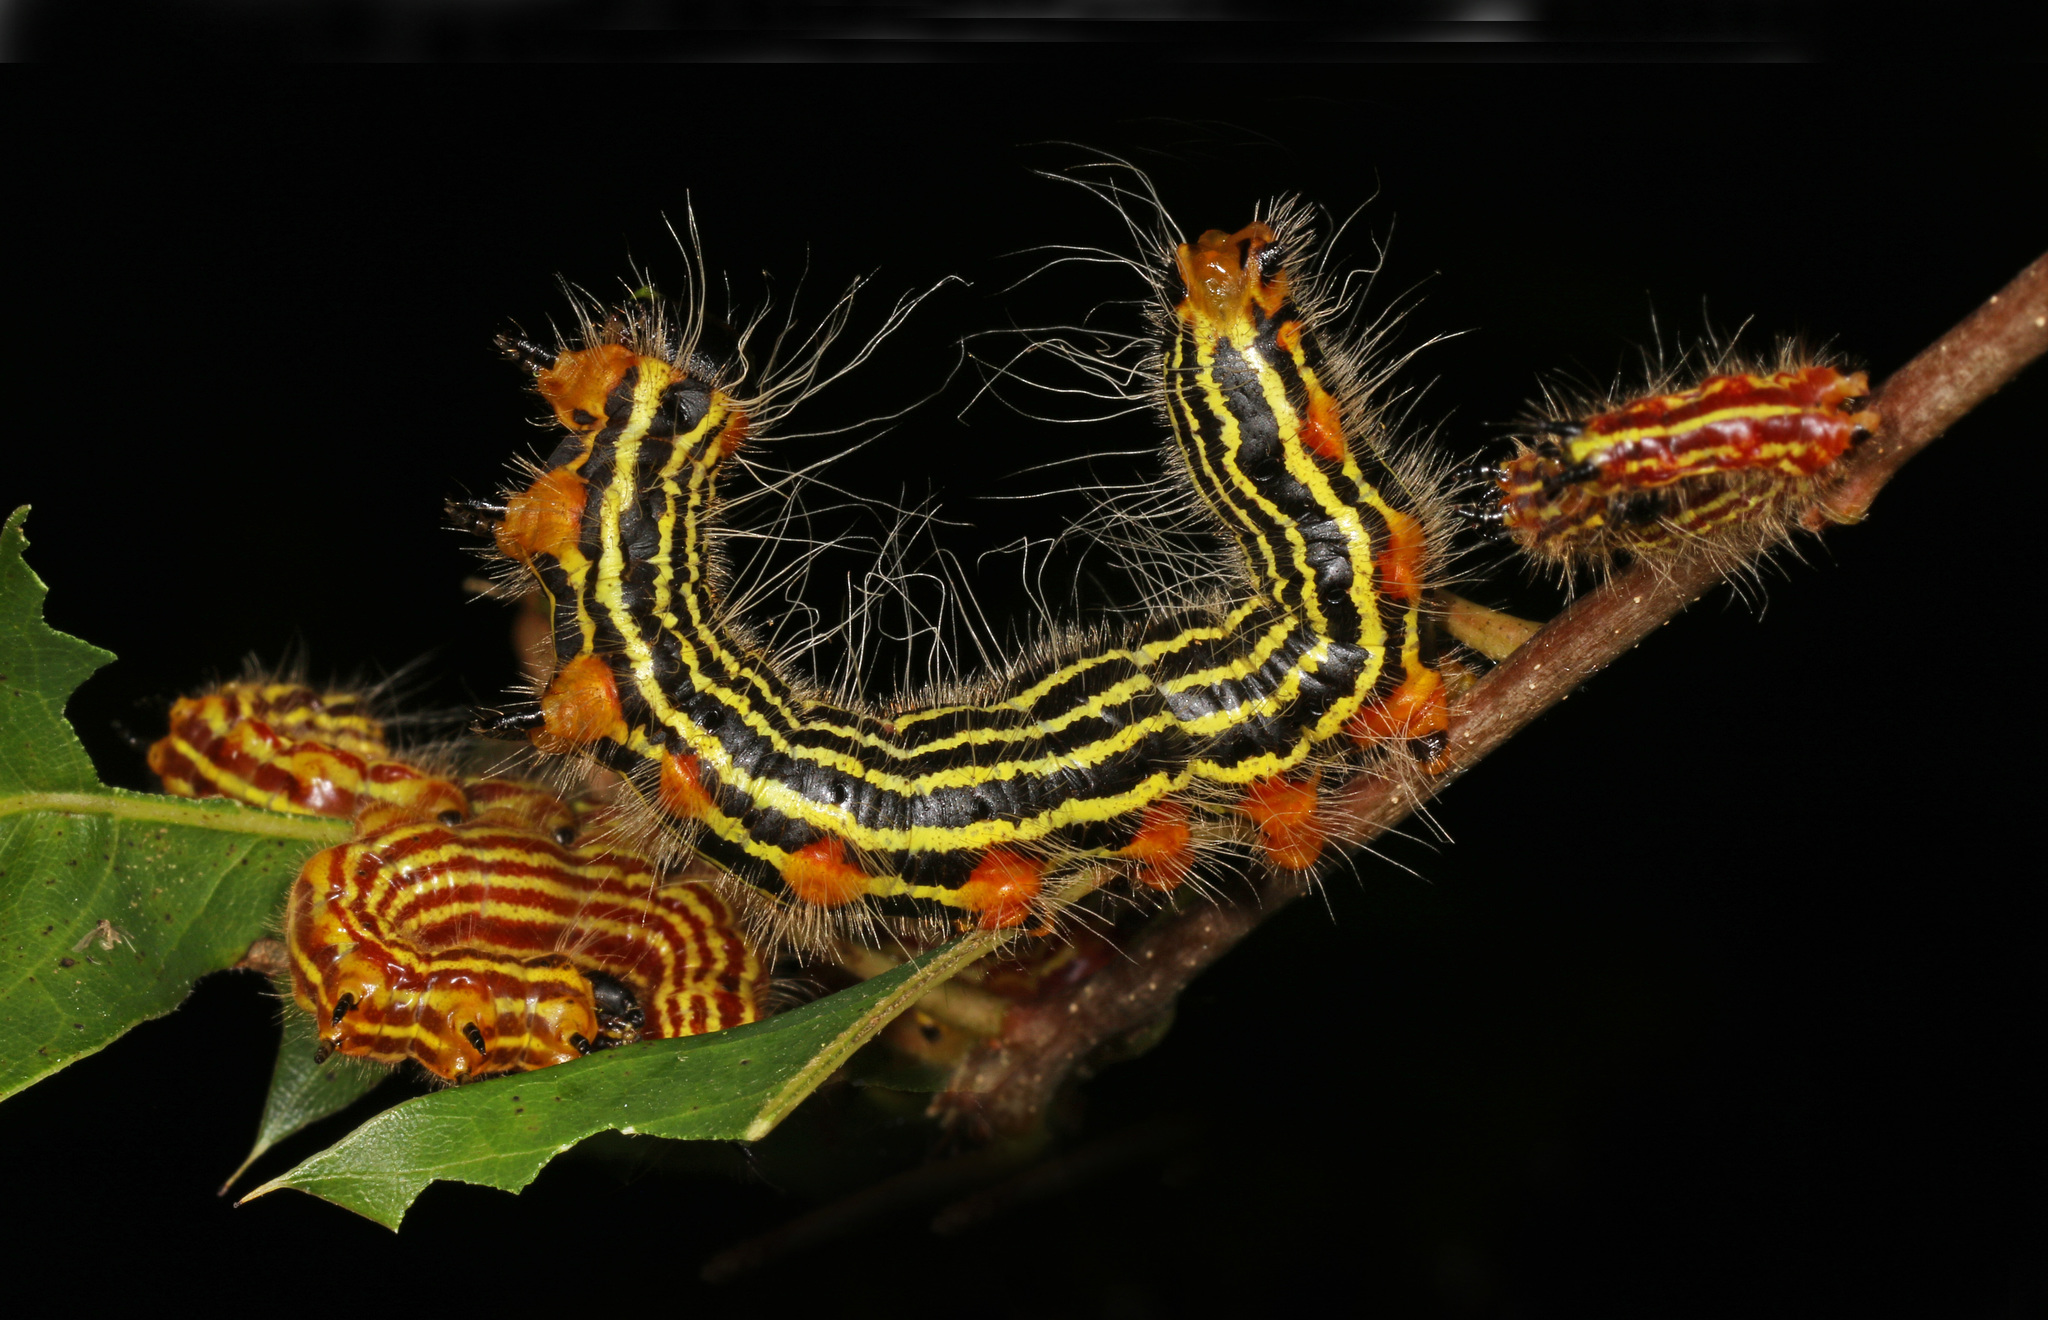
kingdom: Animalia
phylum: Arthropoda
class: Insecta
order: Lepidoptera
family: Notodontidae
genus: Datana
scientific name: Datana ministra
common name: Yellow-necked caterpillar moth
